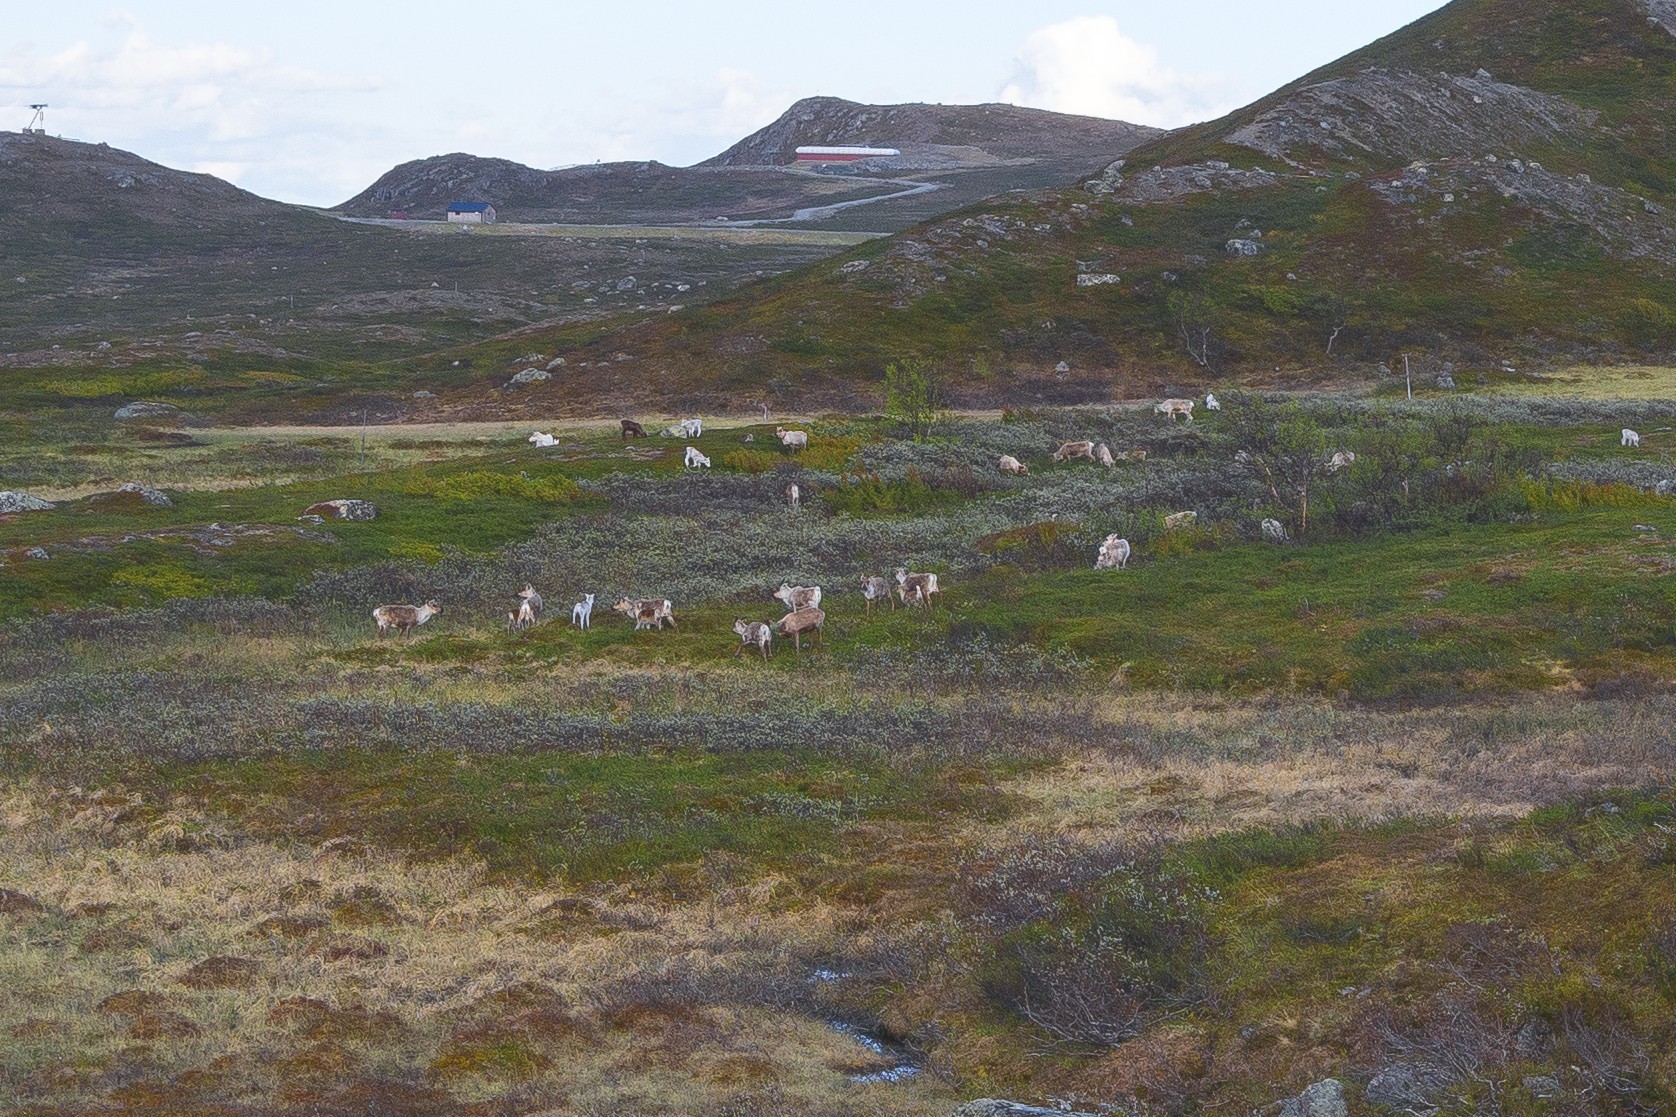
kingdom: Animalia
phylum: Chordata
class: Mammalia
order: Artiodactyla
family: Cervidae
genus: Rangifer
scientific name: Rangifer tarandus
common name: Reindeer
